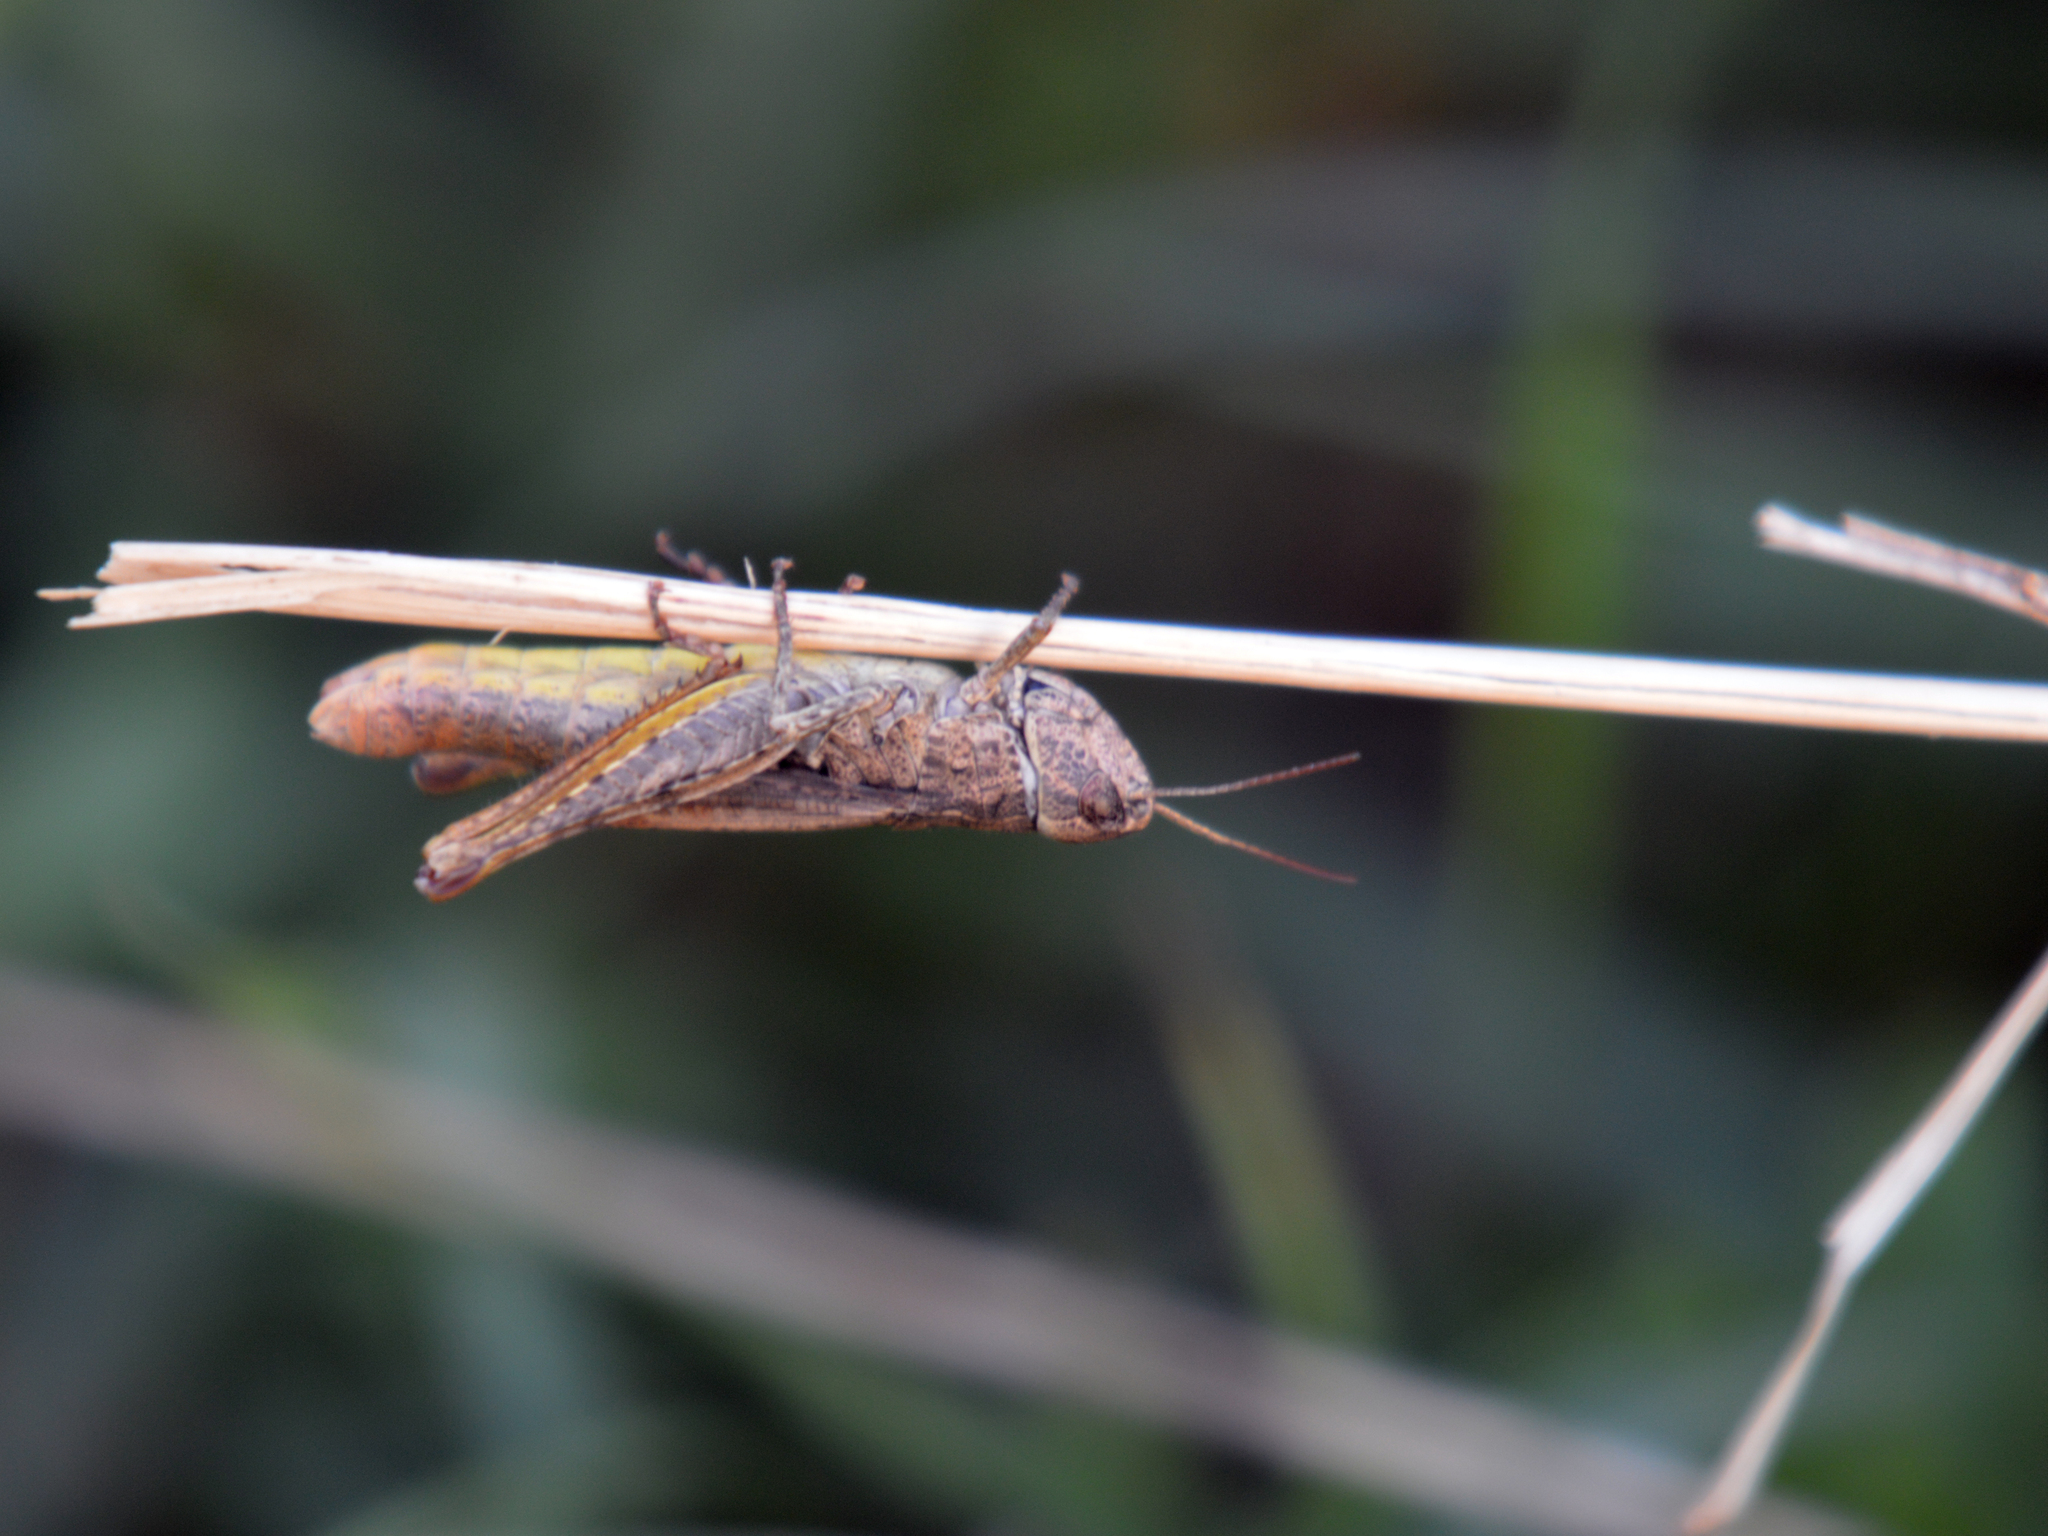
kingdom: Animalia
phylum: Arthropoda
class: Insecta
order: Orthoptera
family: Acrididae
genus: Chorthippus
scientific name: Chorthippus
